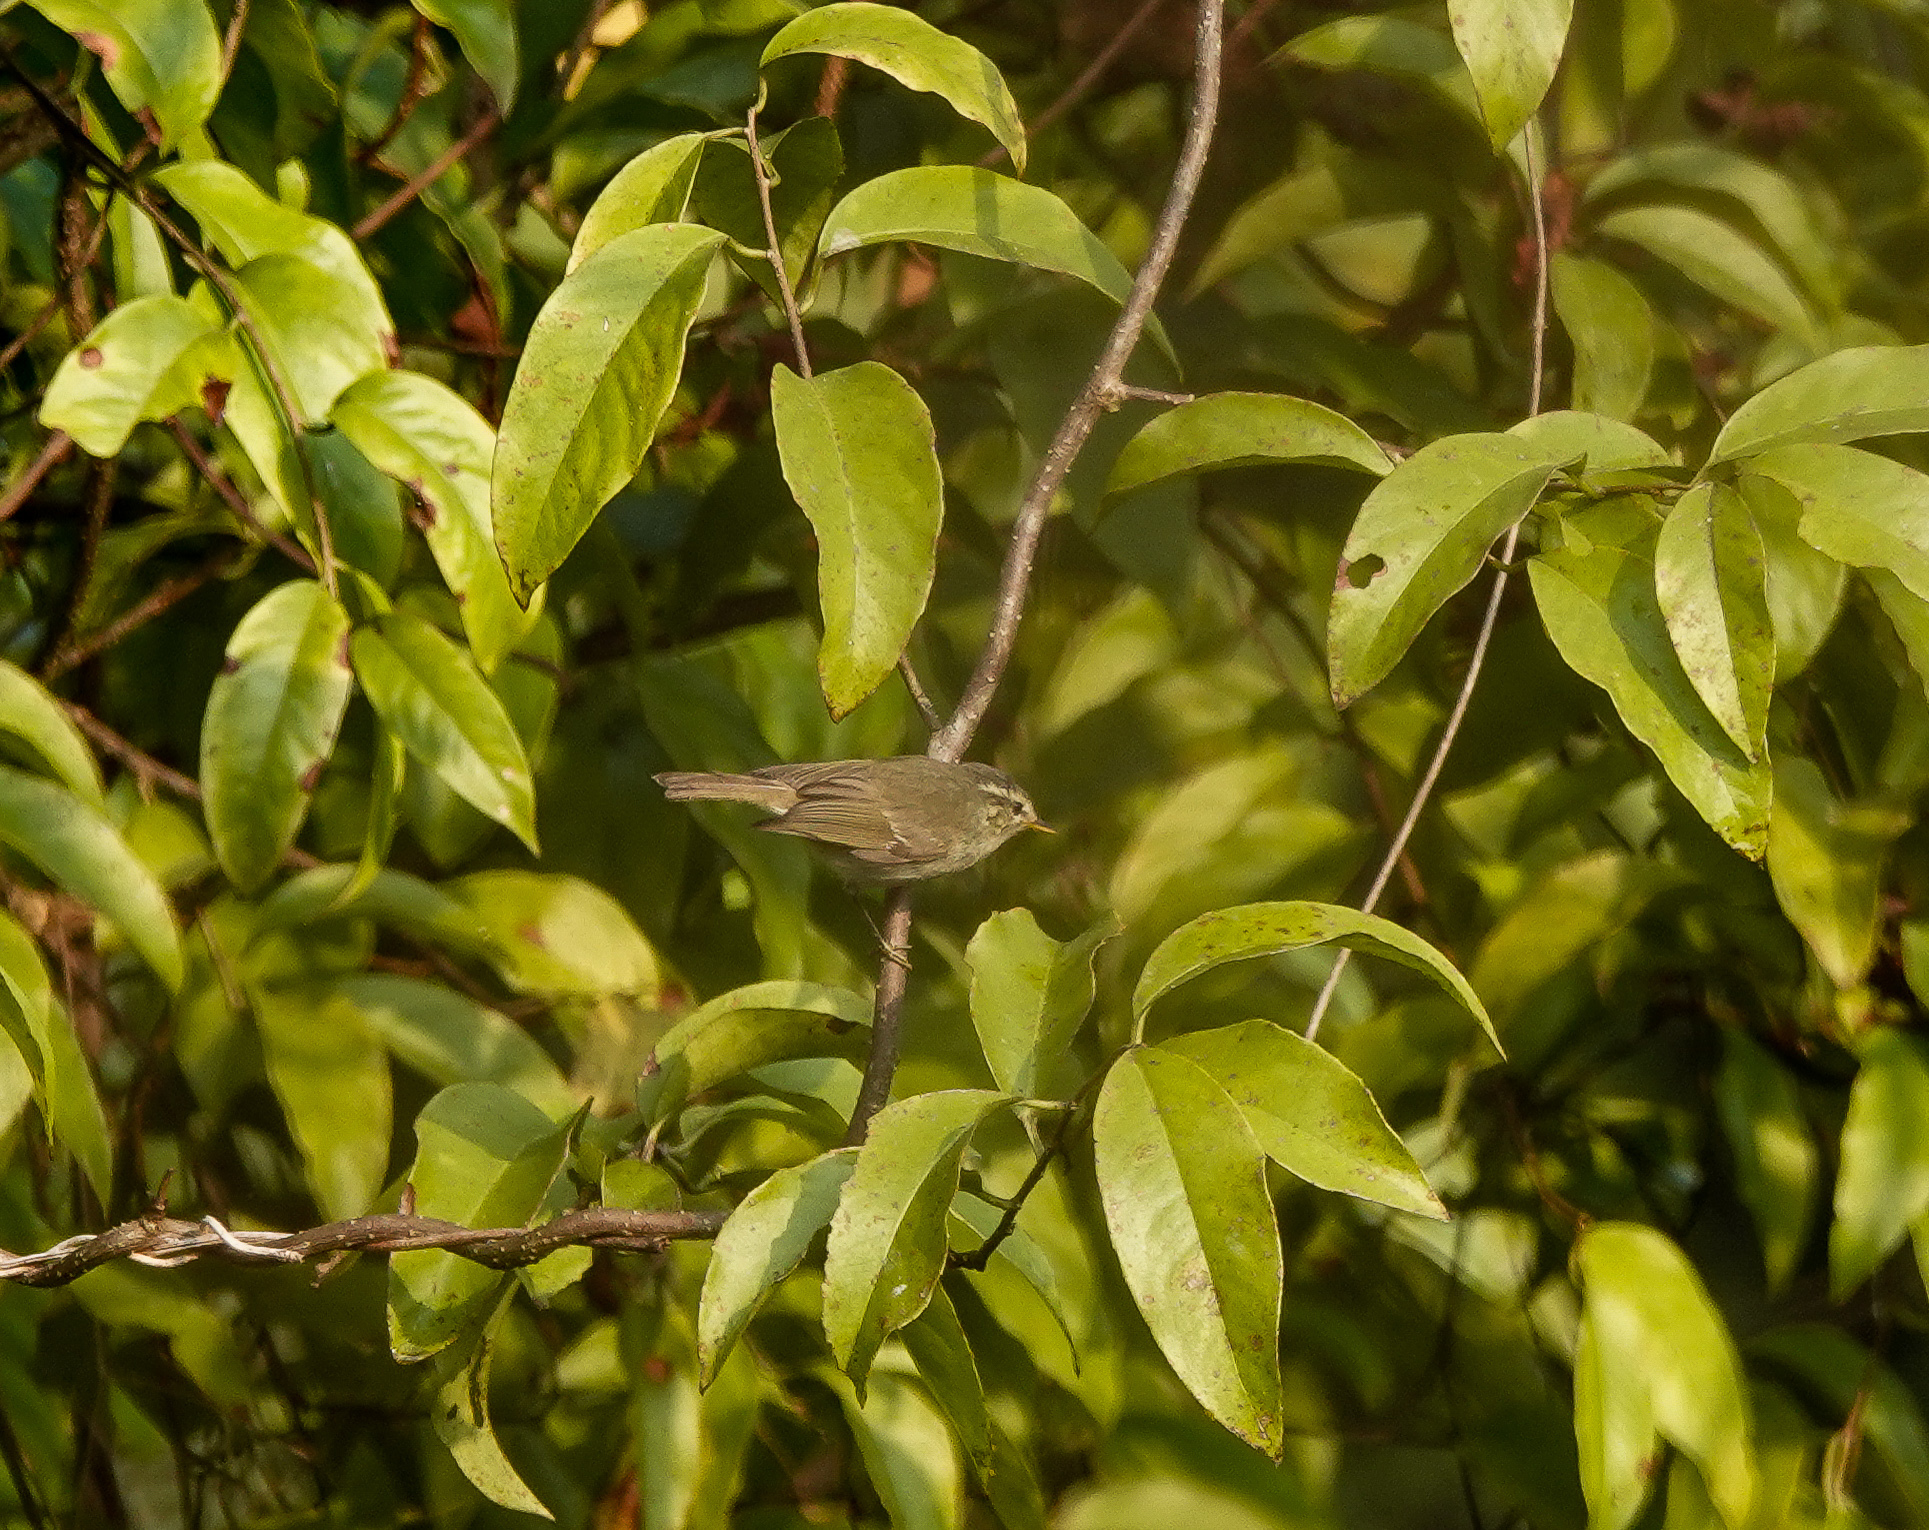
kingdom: Animalia
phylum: Chordata
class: Aves
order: Passeriformes
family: Phylloscopidae
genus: Phylloscopus
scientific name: Phylloscopus inornatus
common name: Yellow-browed warbler
